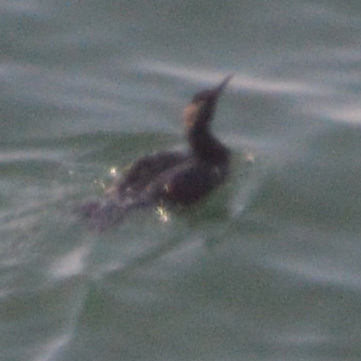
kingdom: Animalia
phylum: Chordata
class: Aves
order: Suliformes
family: Phalacrocoracidae
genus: Urile
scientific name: Urile penicillatus
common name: Brandt's cormorant
